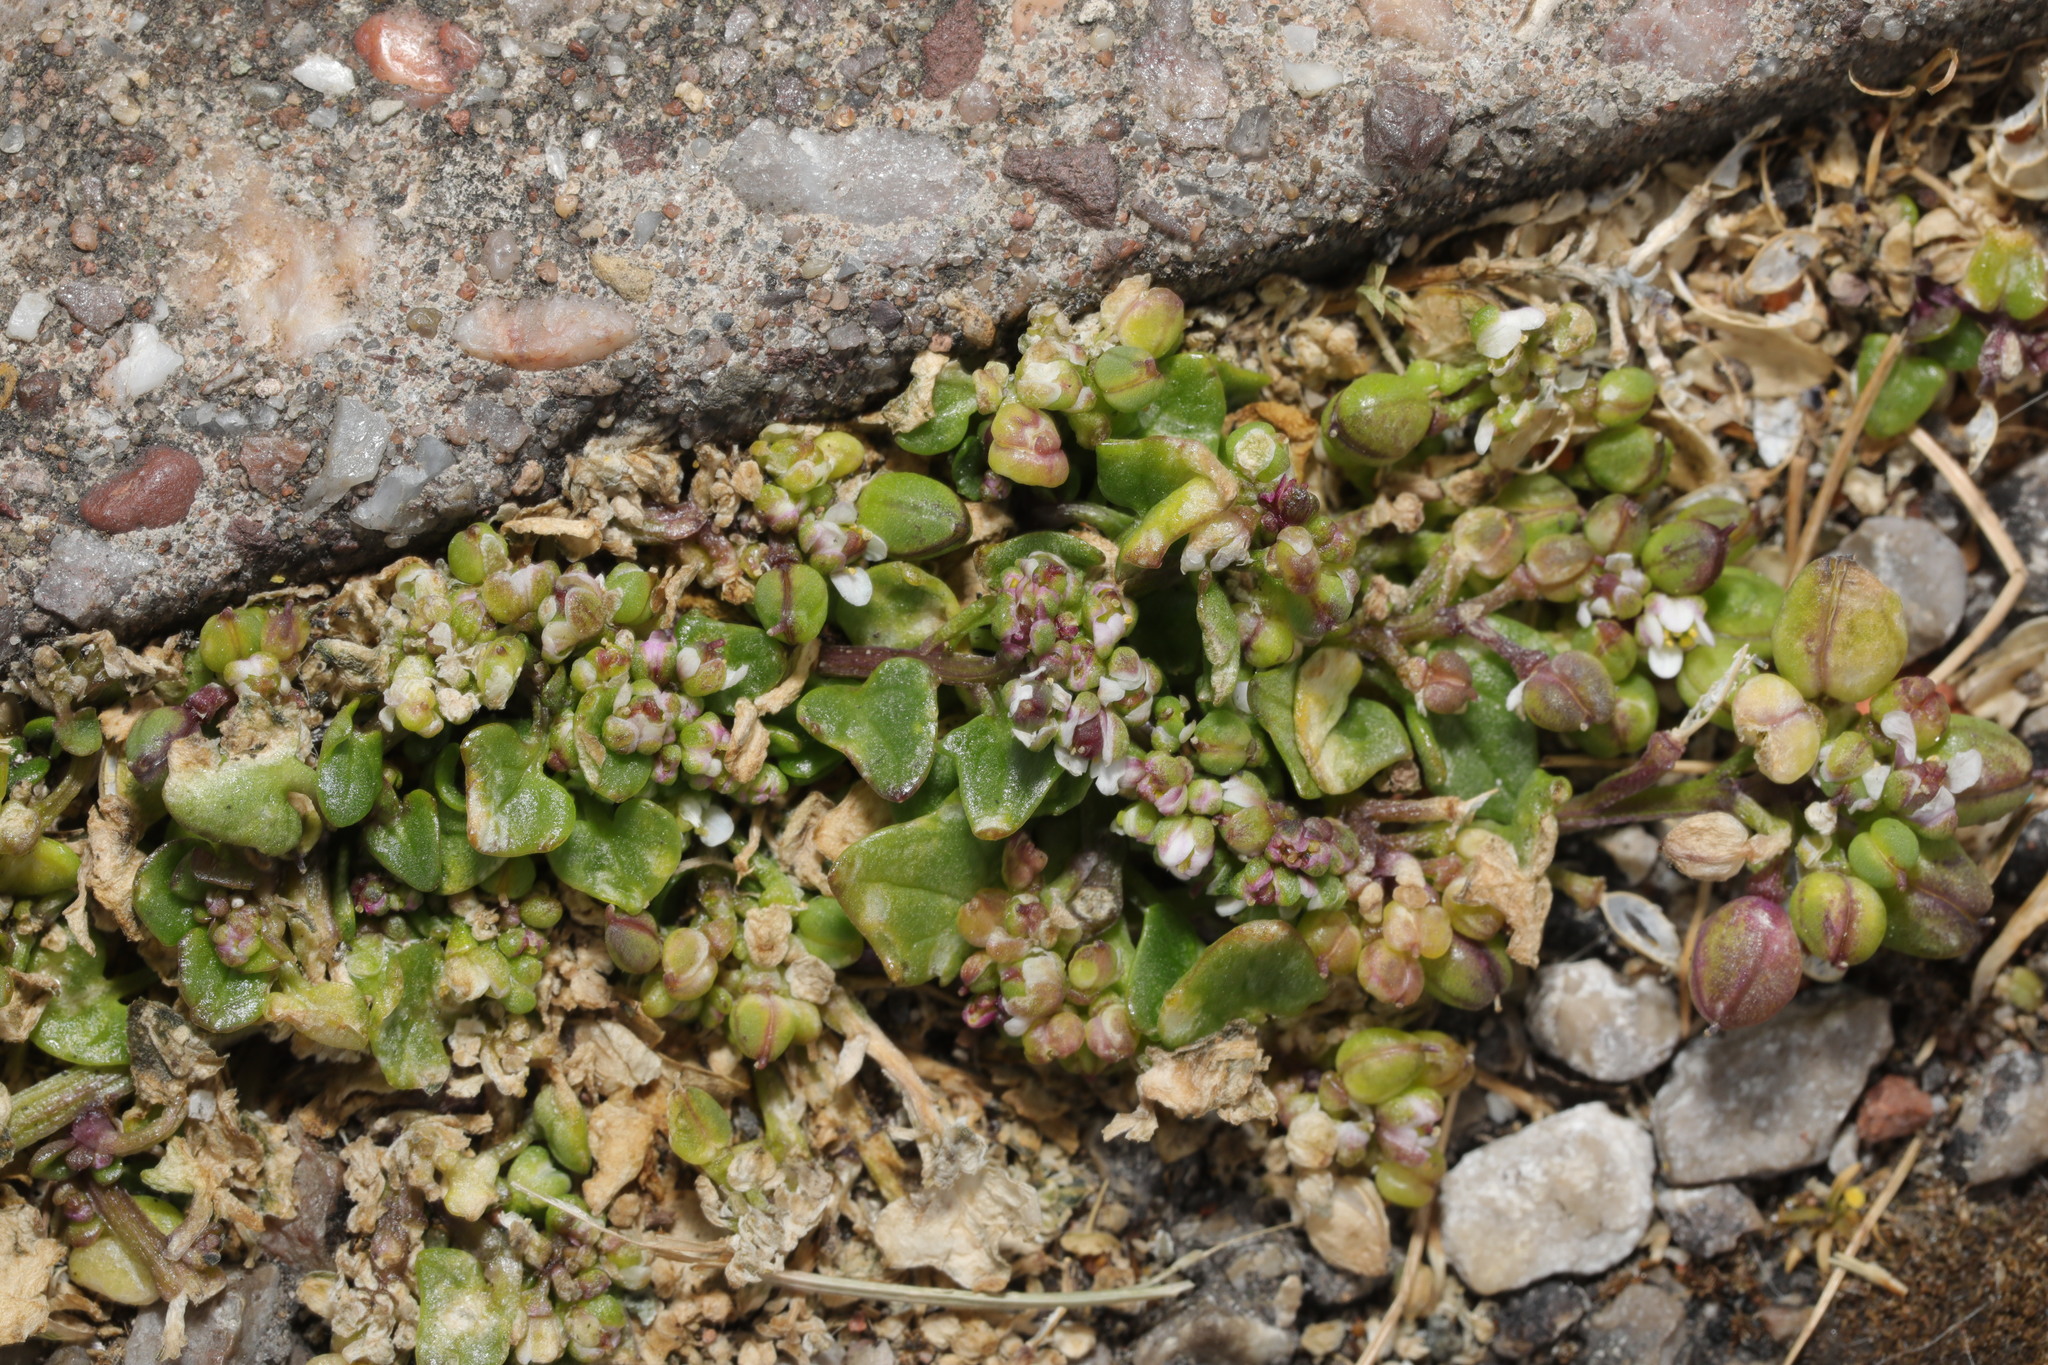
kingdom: Plantae
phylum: Tracheophyta
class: Magnoliopsida
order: Brassicales
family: Brassicaceae
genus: Cochlearia
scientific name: Cochlearia officinalis
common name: Scurvy-grass
